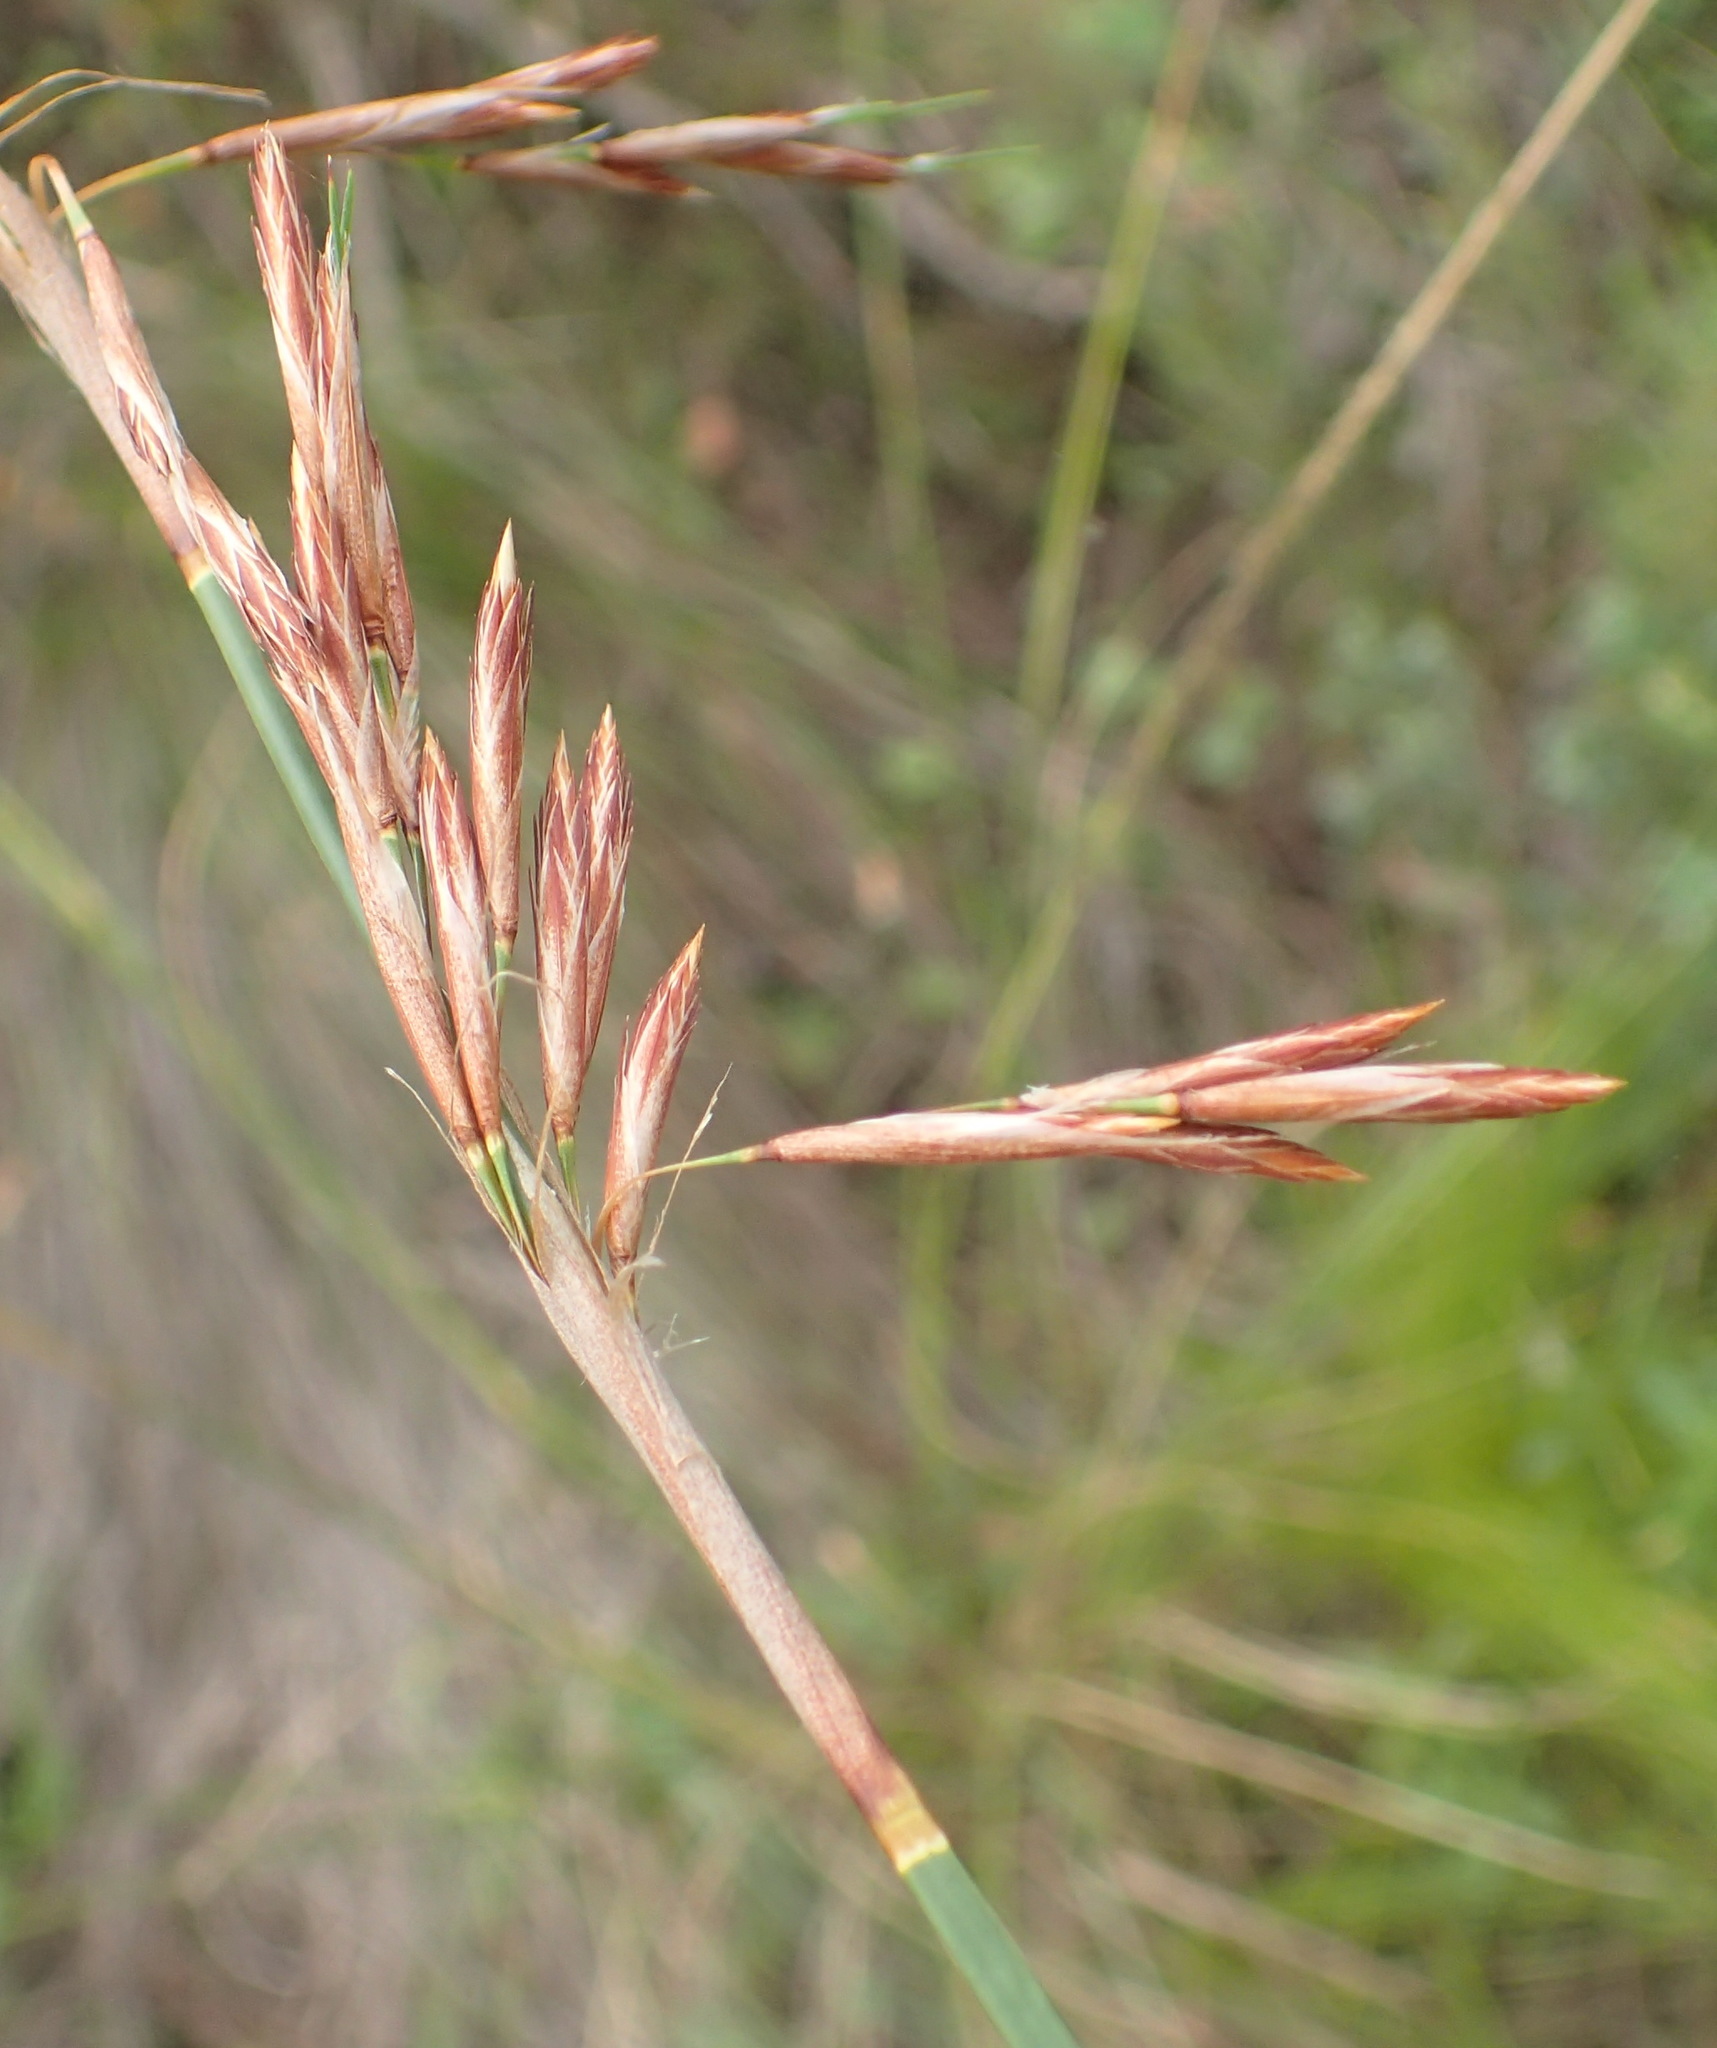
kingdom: Plantae
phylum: Tracheophyta
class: Liliopsida
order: Poales
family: Restionaceae
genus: Thamnochortus
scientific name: Thamnochortus glaber
